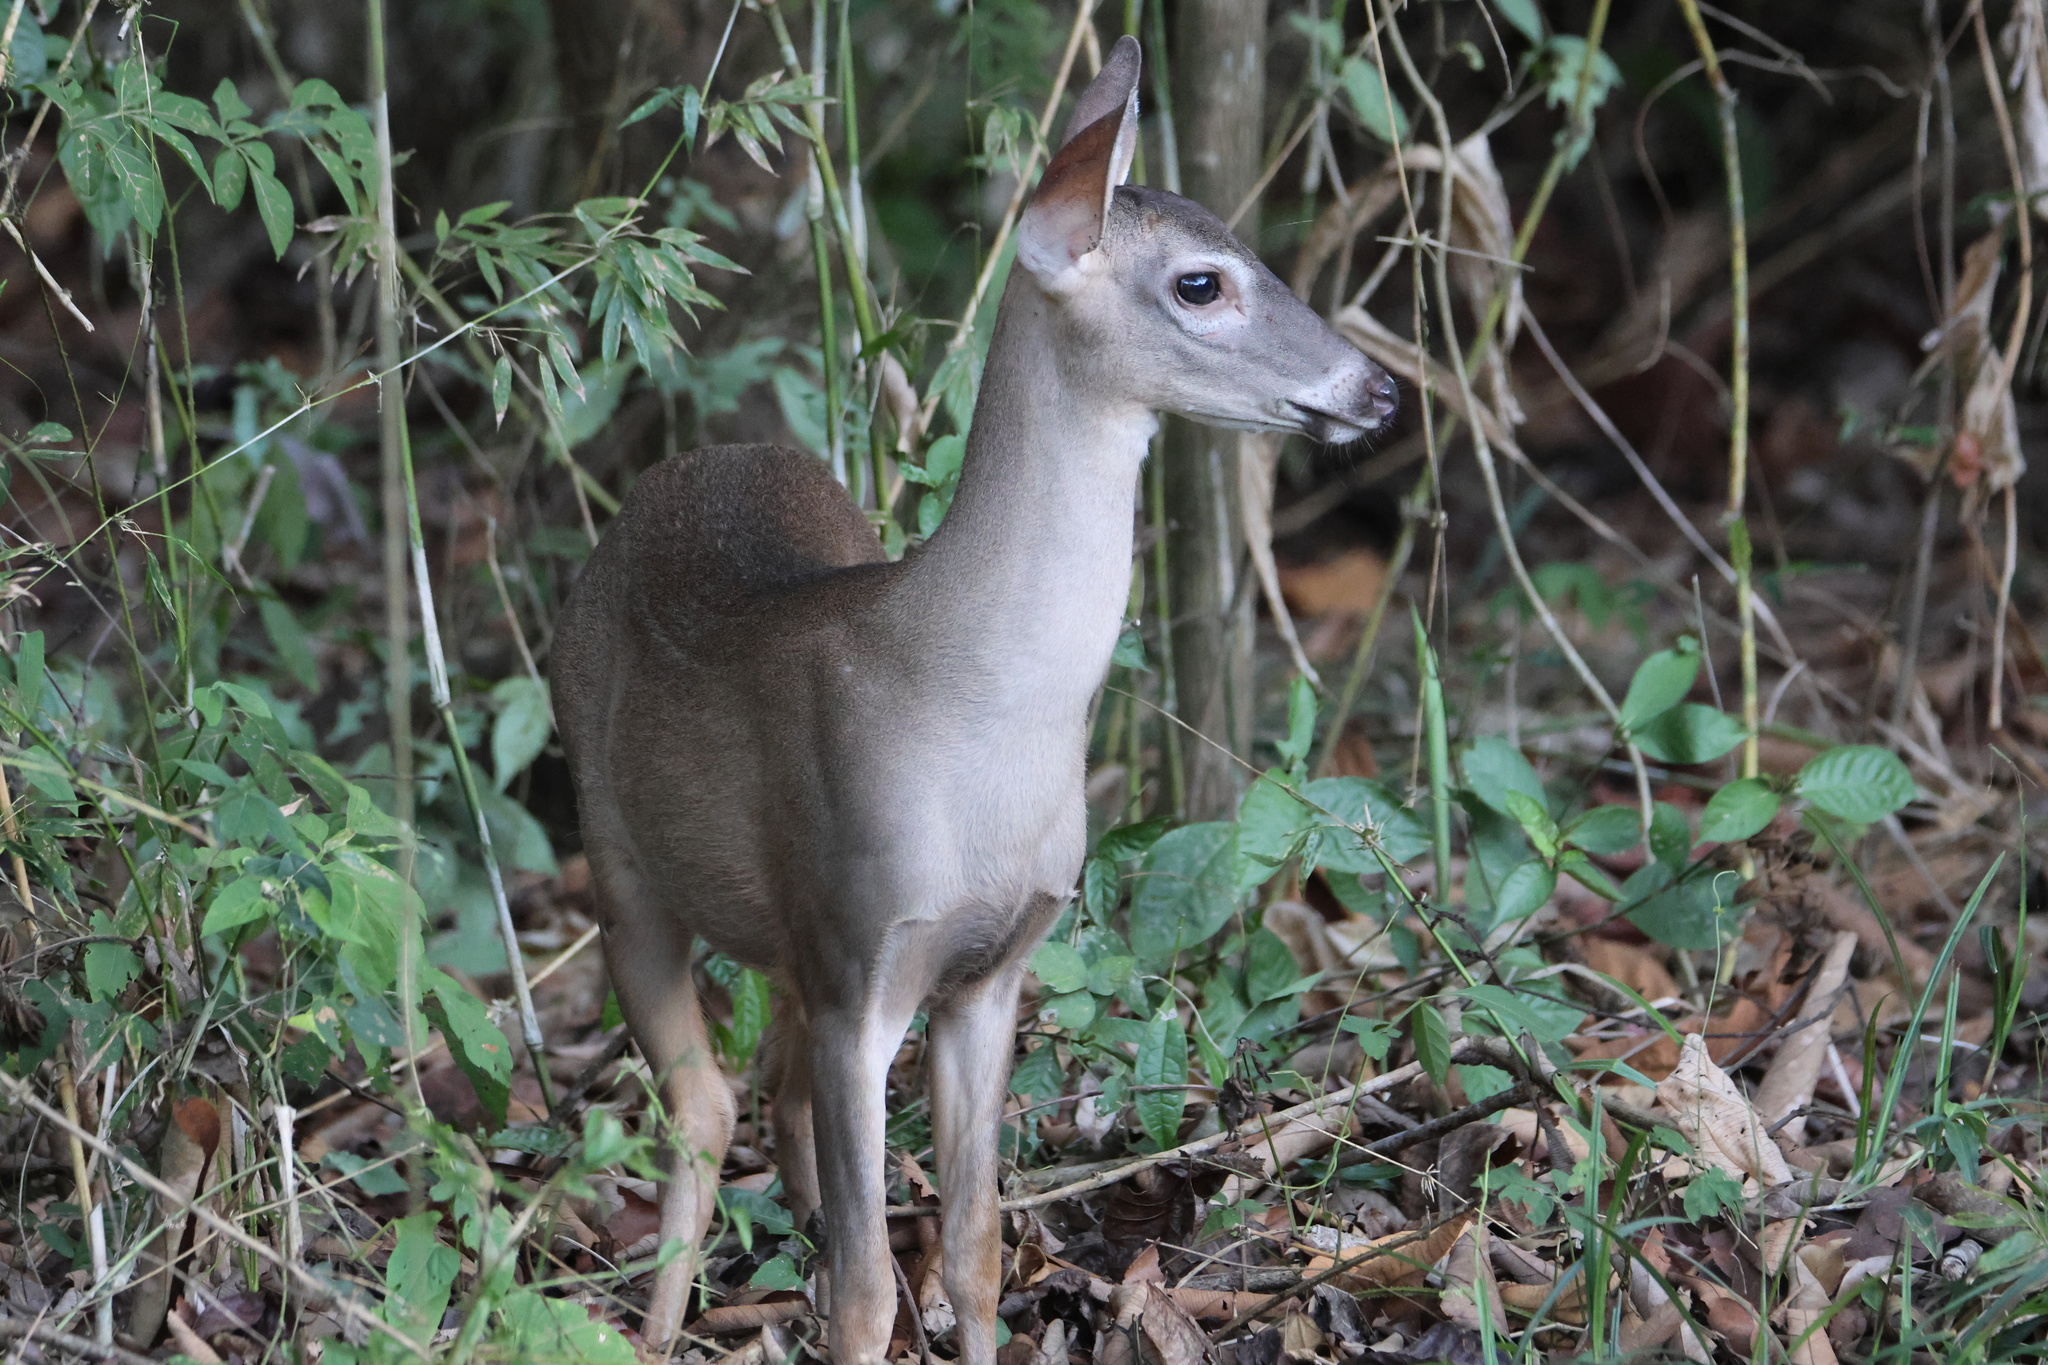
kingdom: Animalia
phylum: Chordata
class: Mammalia
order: Artiodactyla
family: Cervidae
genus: Odocoileus
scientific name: Odocoileus virginianus
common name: White-tailed deer
